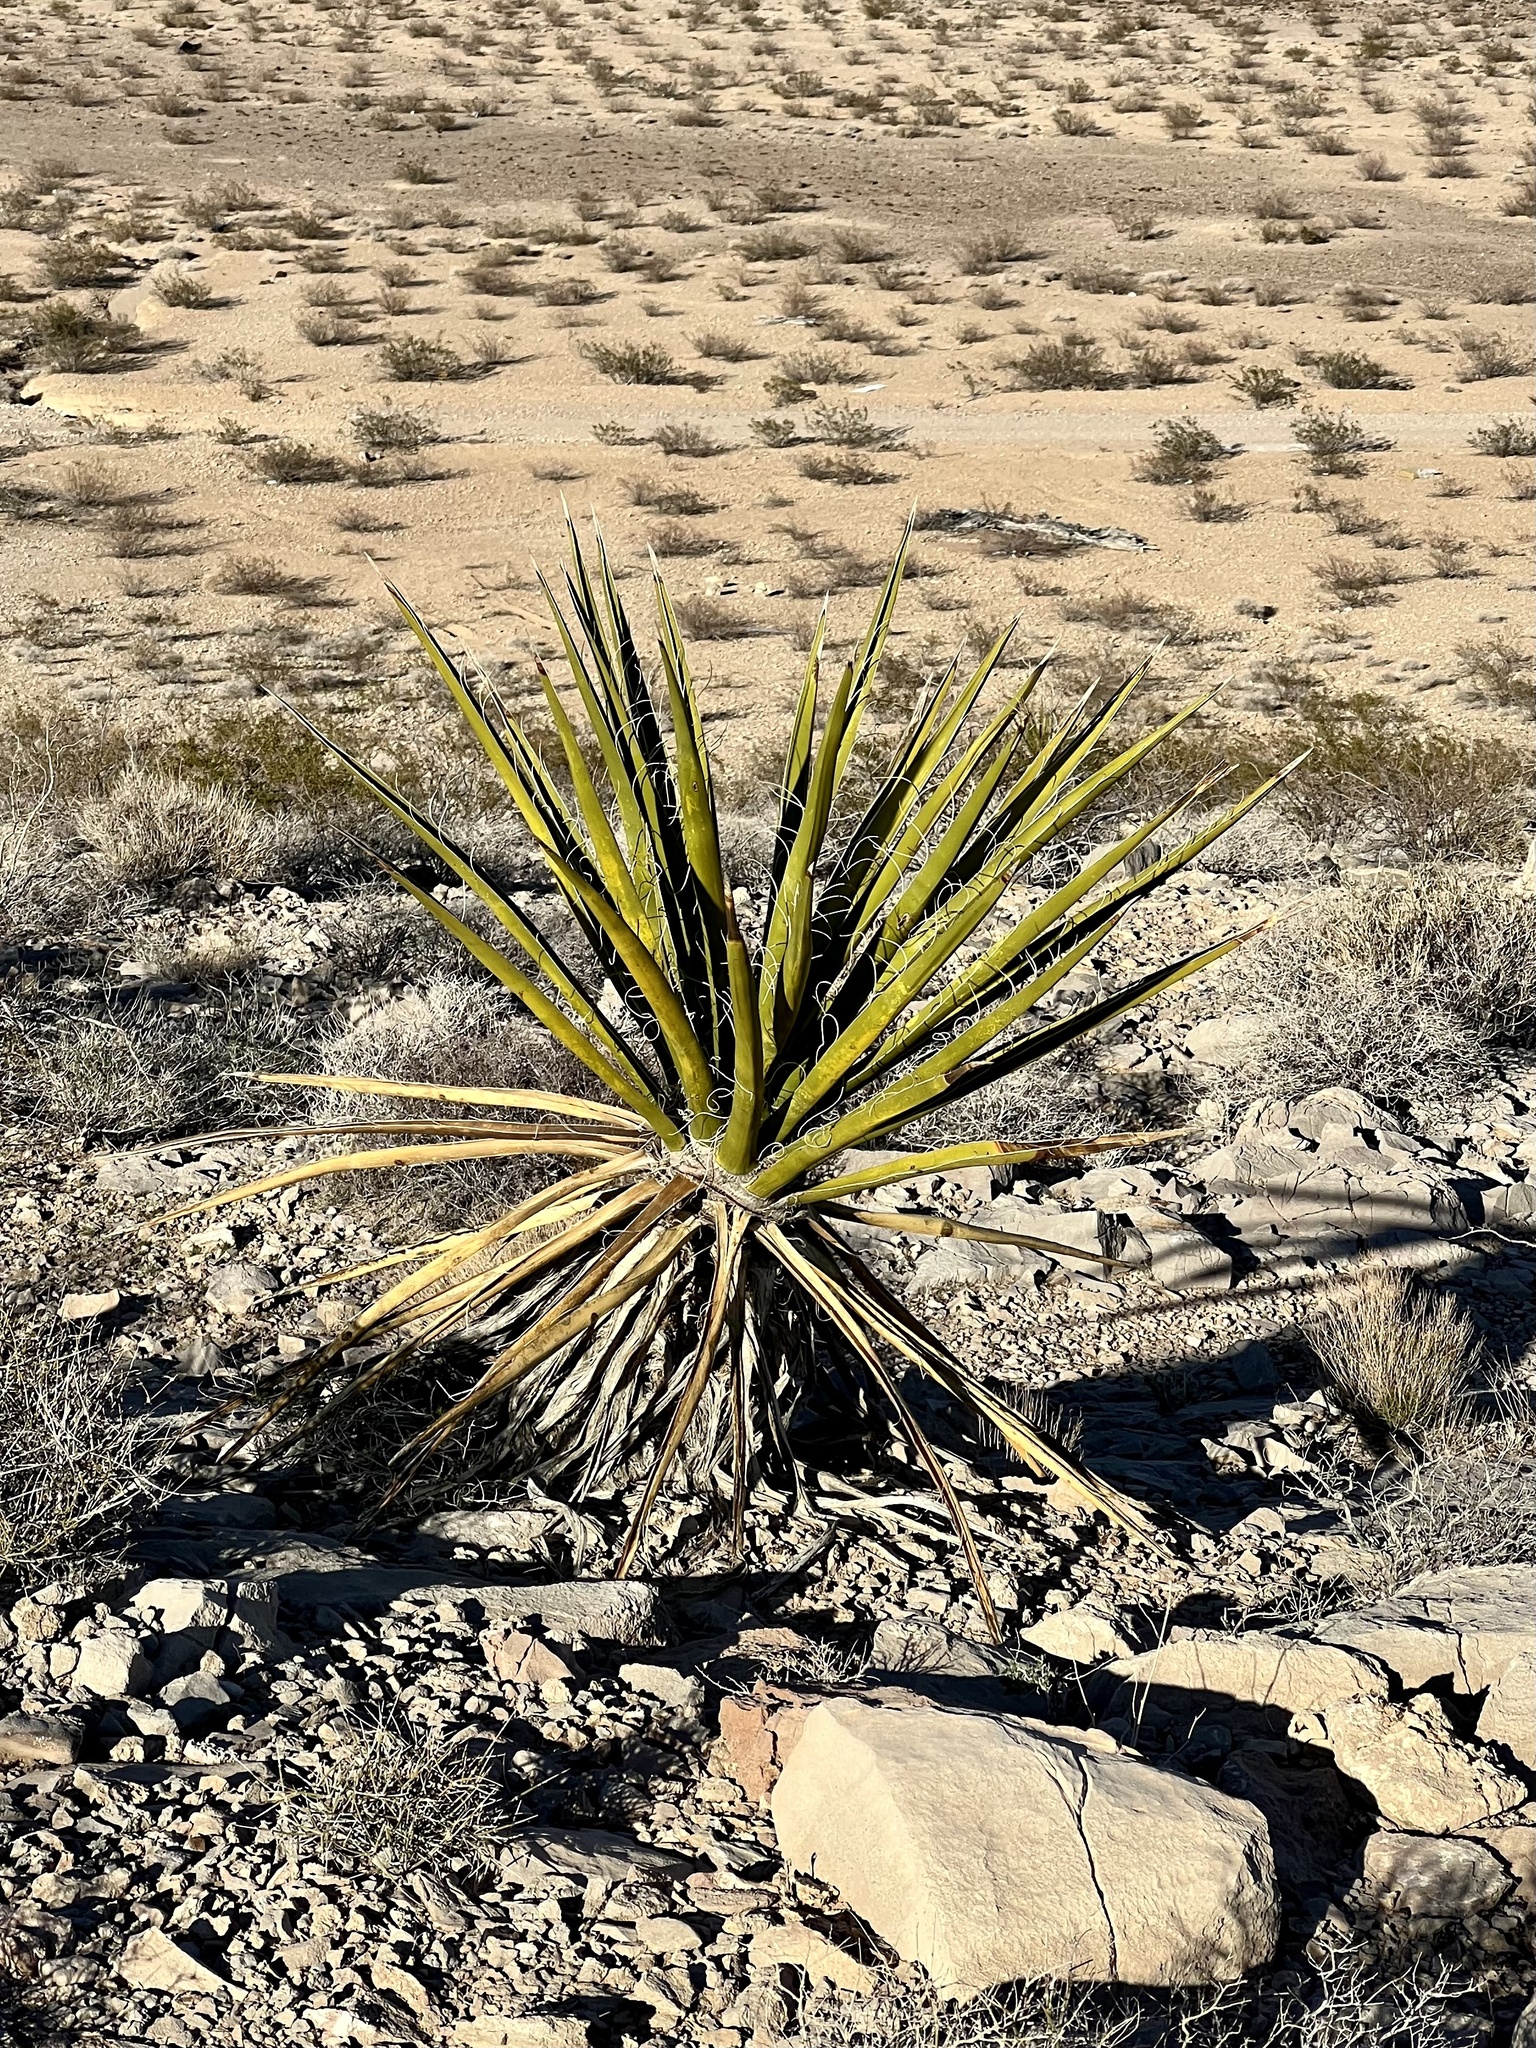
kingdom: Plantae
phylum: Tracheophyta
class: Liliopsida
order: Asparagales
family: Asparagaceae
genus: Yucca
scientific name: Yucca schidigera
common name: Mojave yucca
